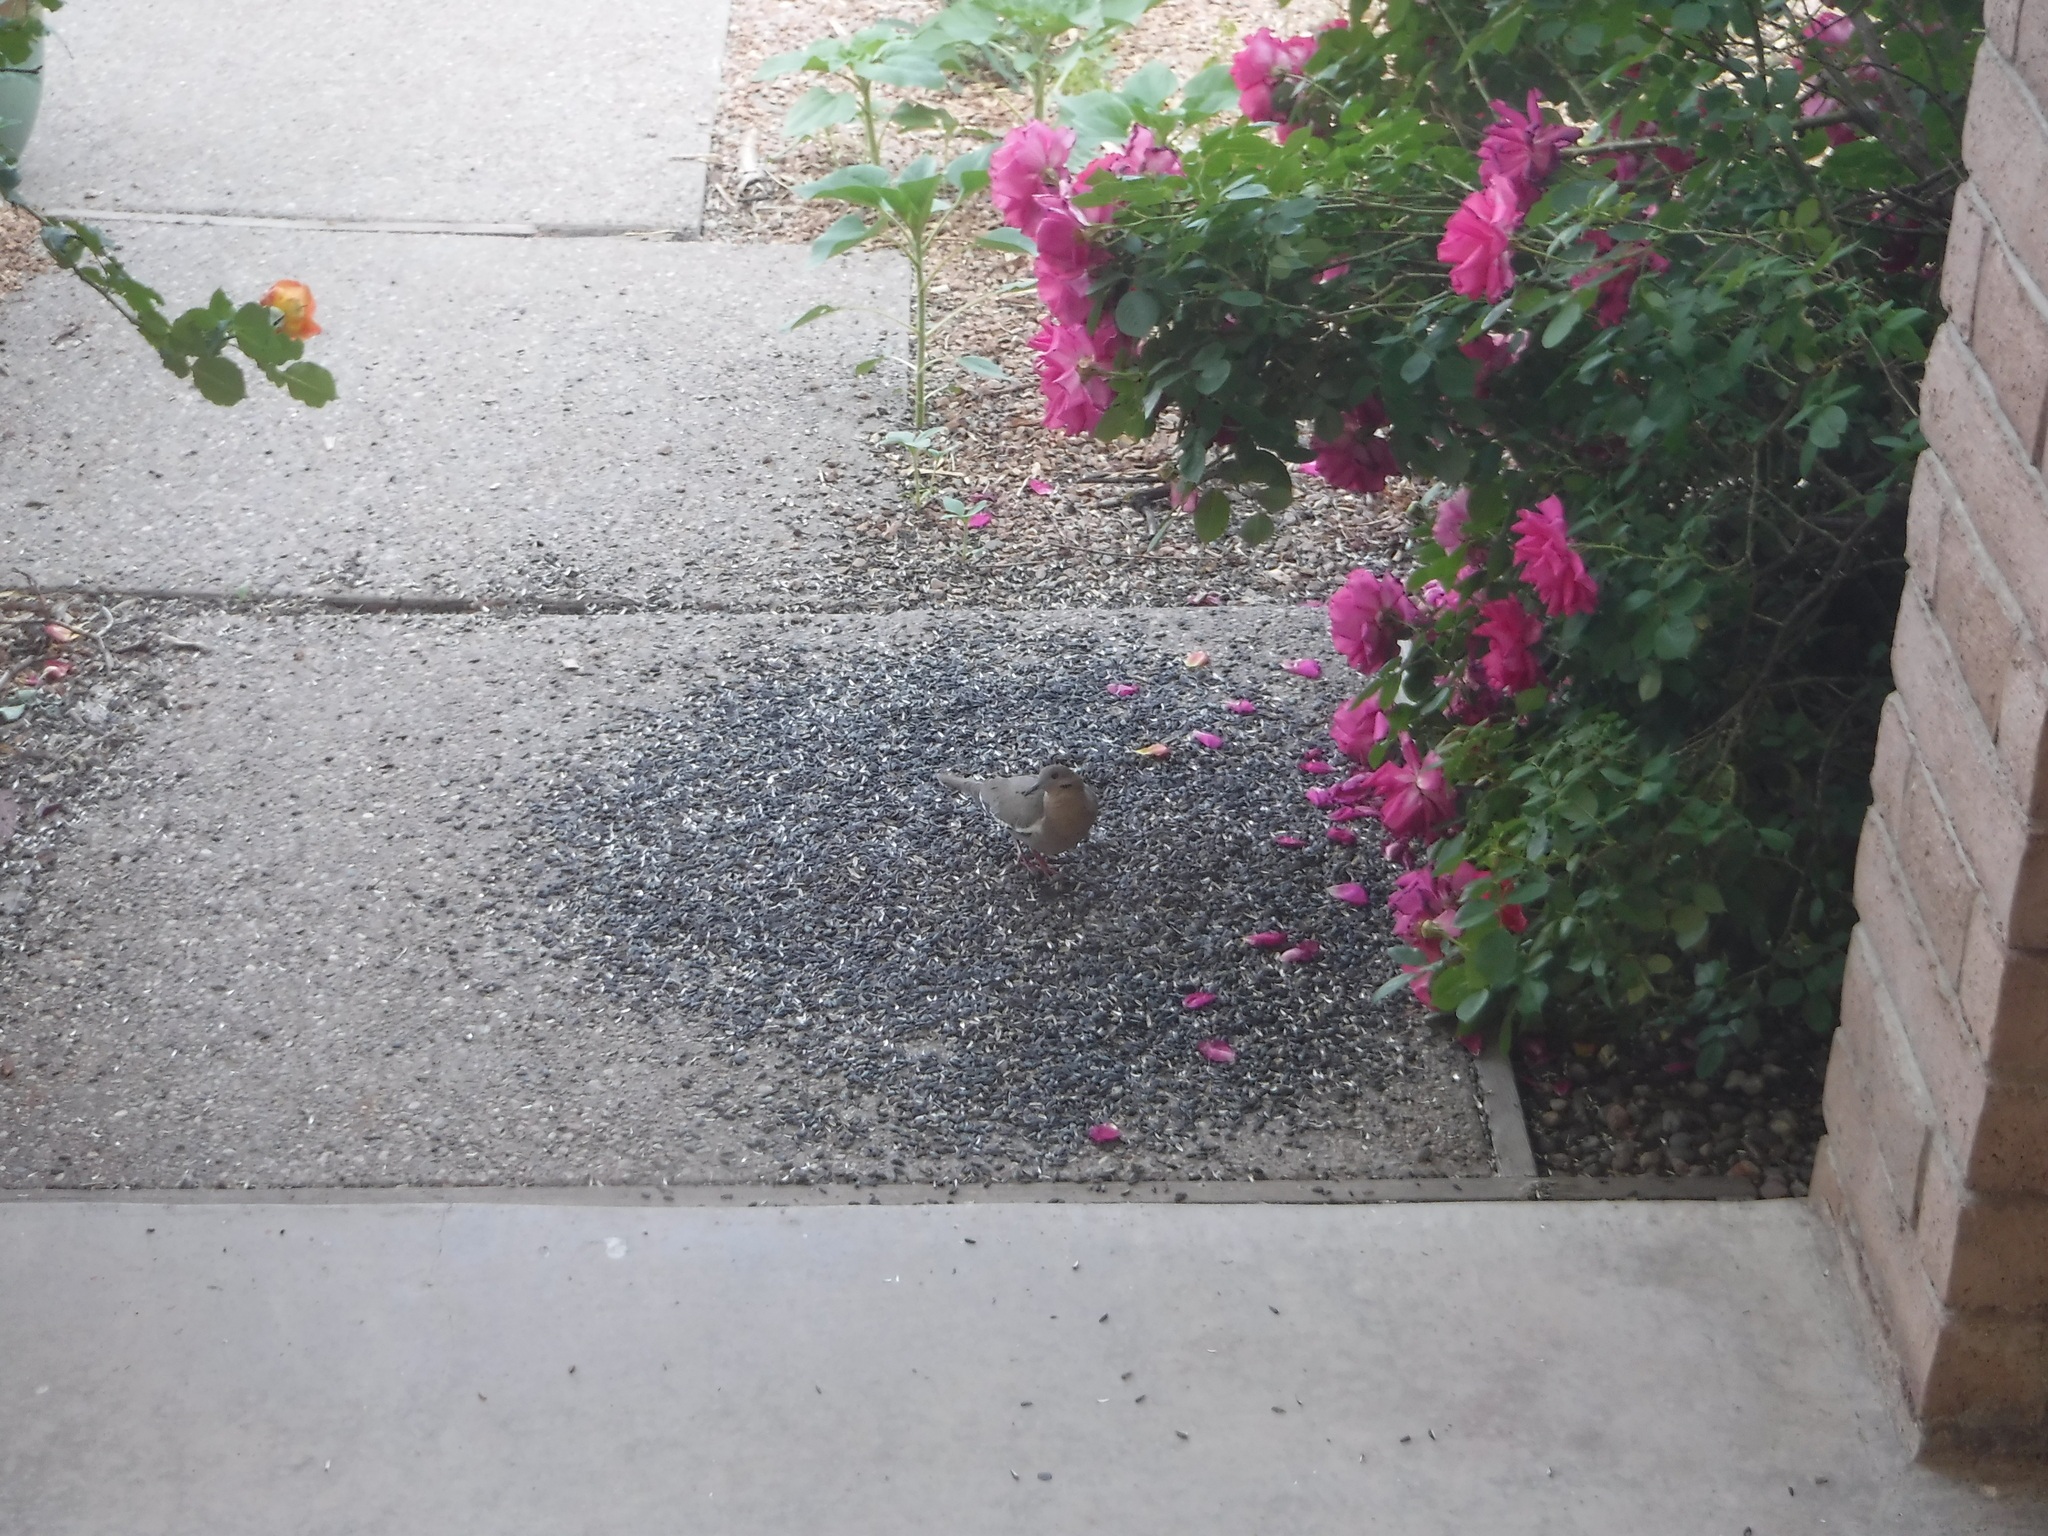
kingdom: Animalia
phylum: Chordata
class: Aves
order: Columbiformes
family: Columbidae
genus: Zenaida
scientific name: Zenaida asiatica
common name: White-winged dove
